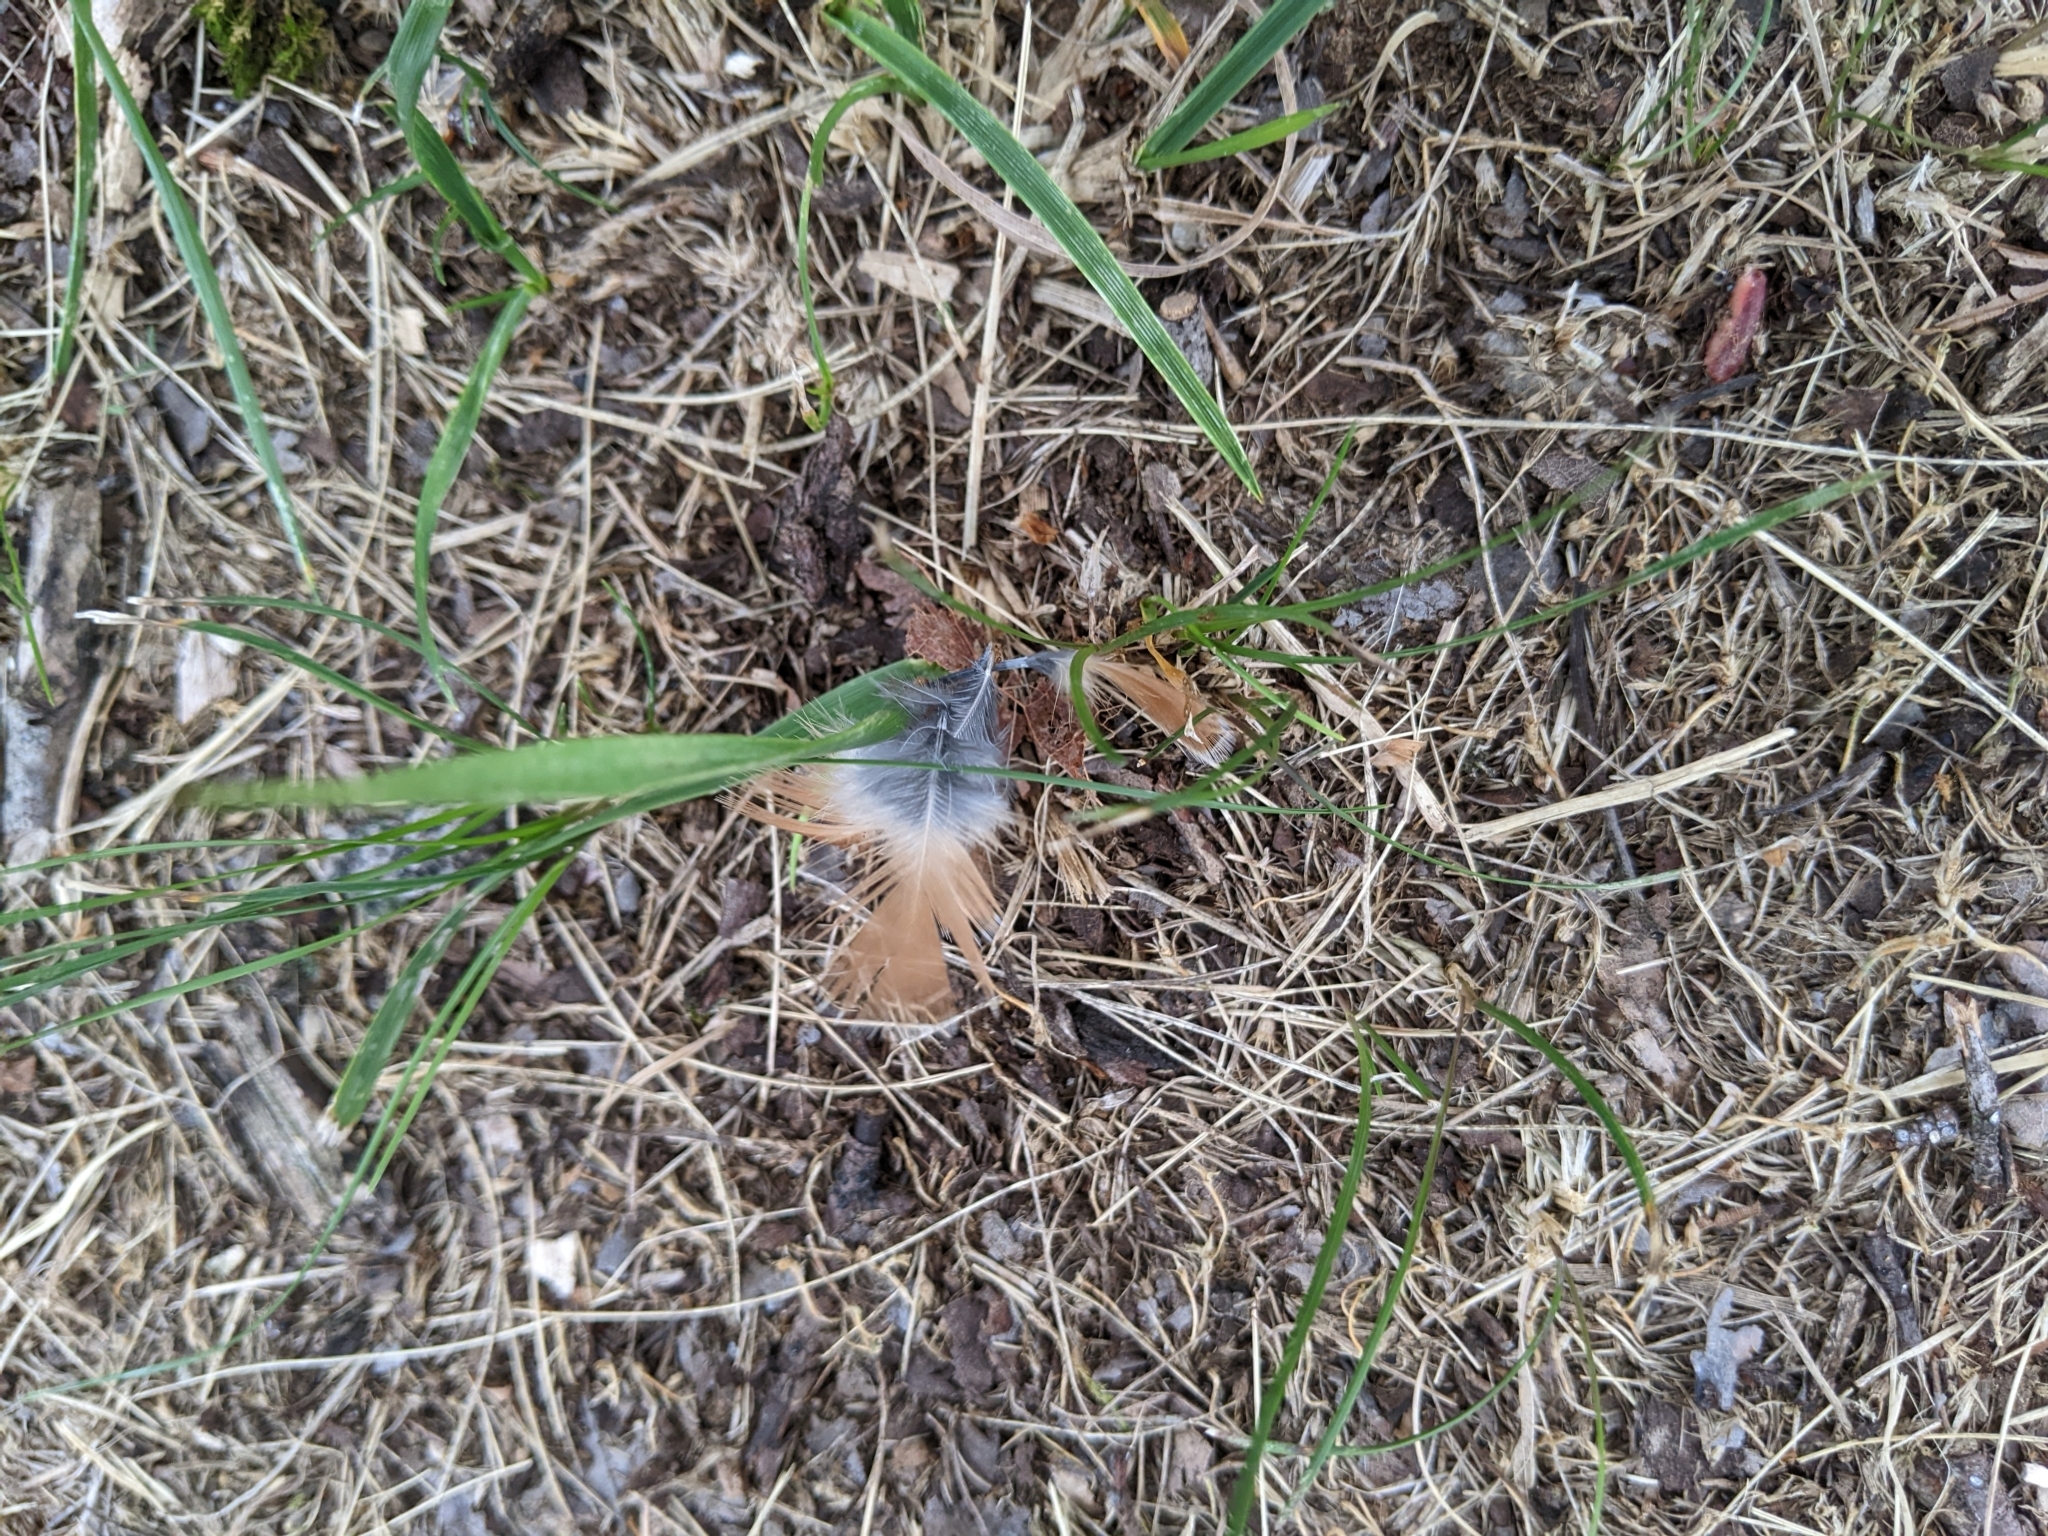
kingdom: Animalia
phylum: Chordata
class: Aves
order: Passeriformes
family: Turdidae
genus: Turdus
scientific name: Turdus migratorius
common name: American robin
